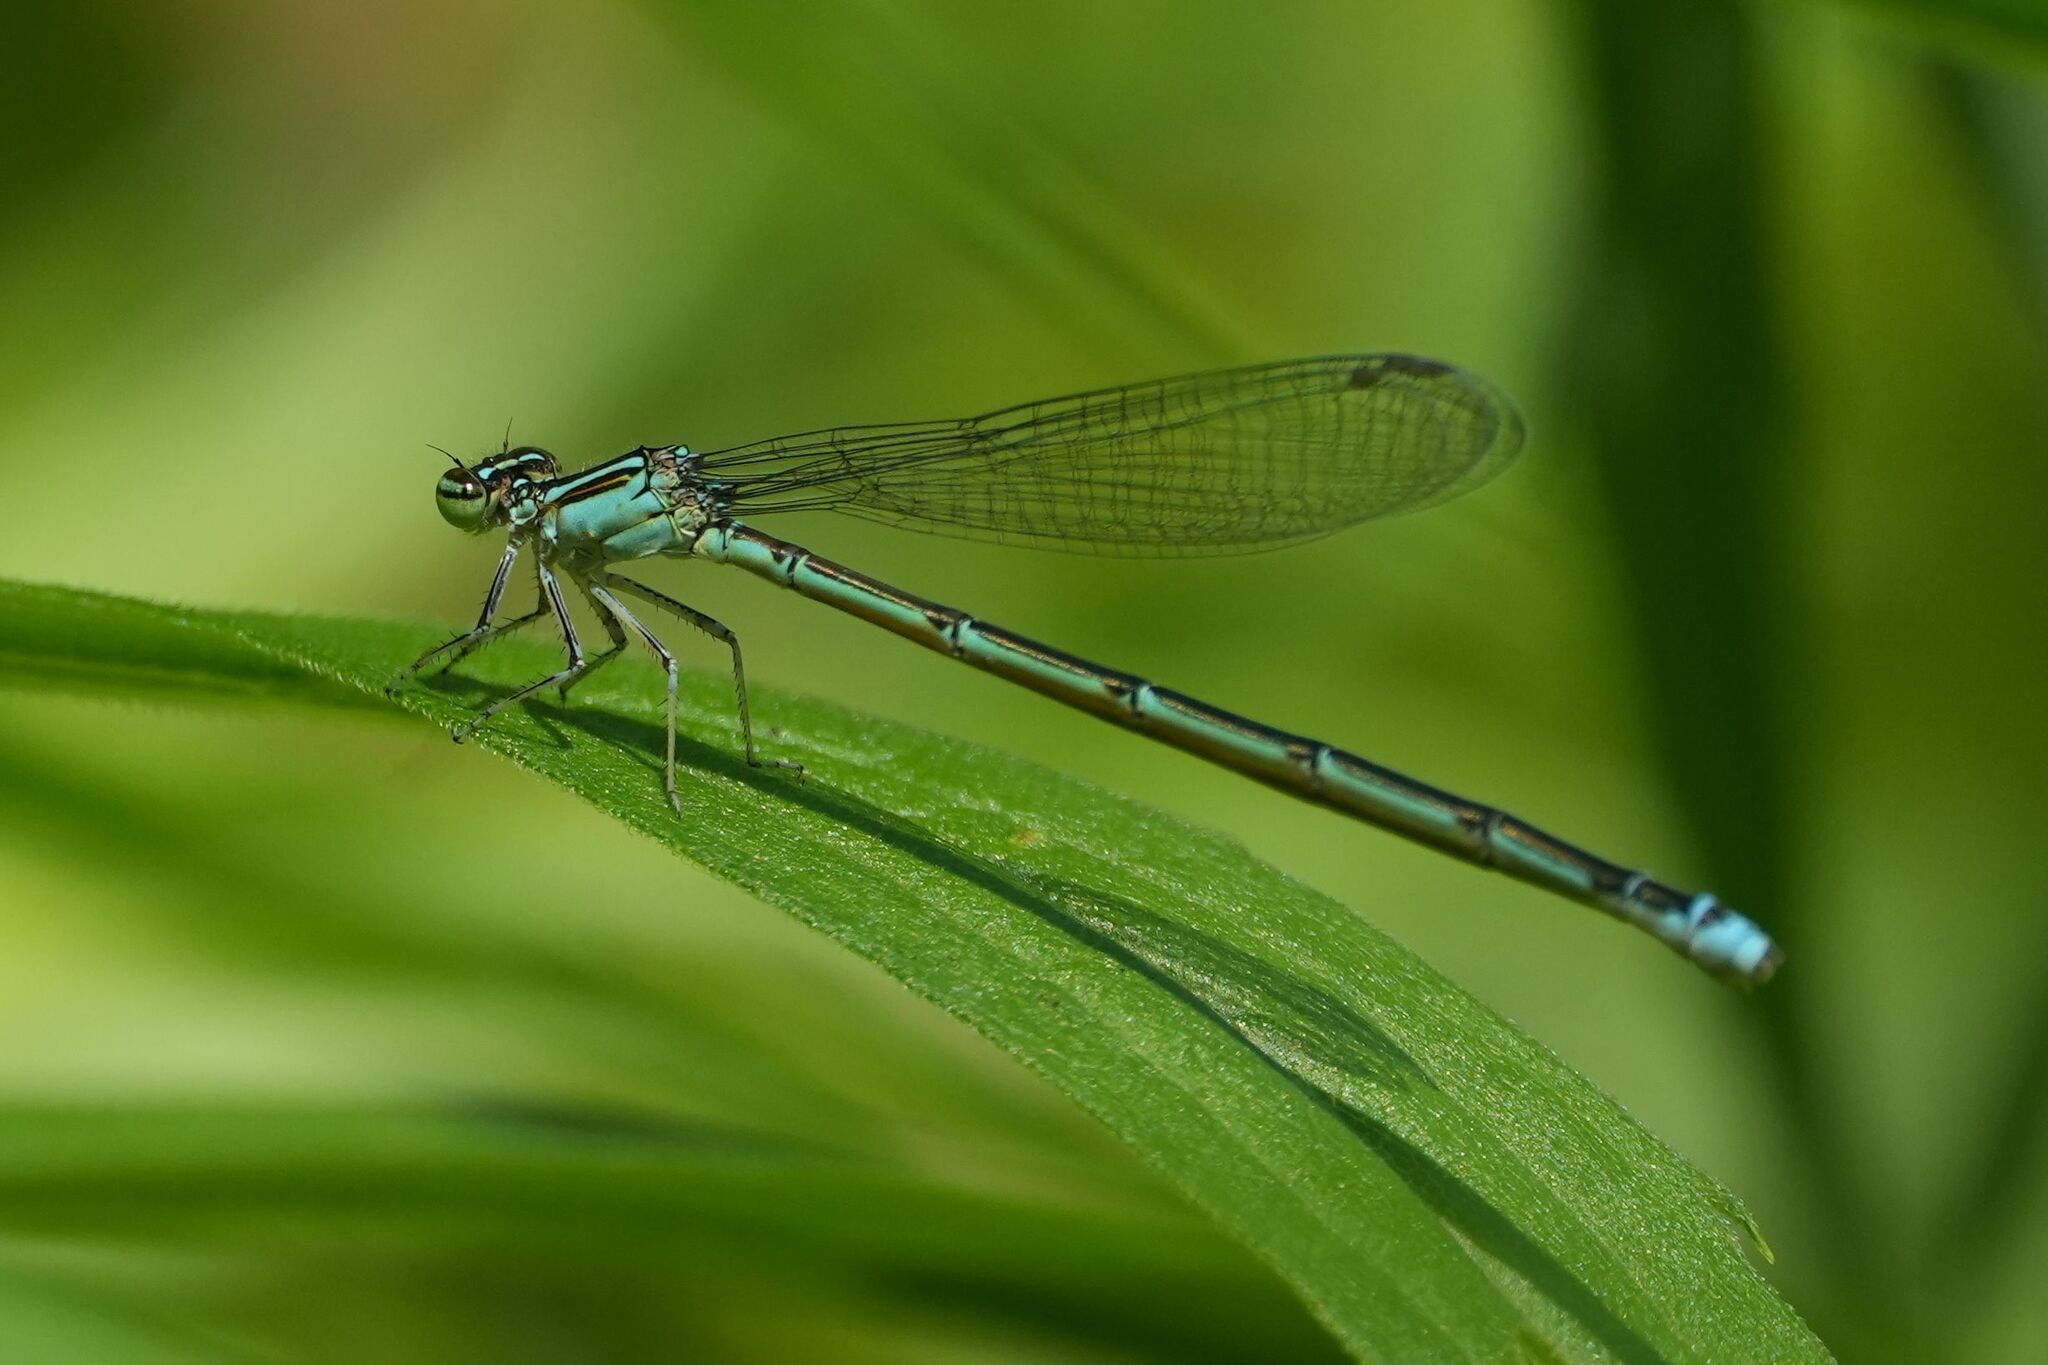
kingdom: Animalia
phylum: Arthropoda
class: Insecta
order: Odonata
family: Coenagrionidae
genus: Enallagma
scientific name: Enallagma exsulans
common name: Stream bluet
